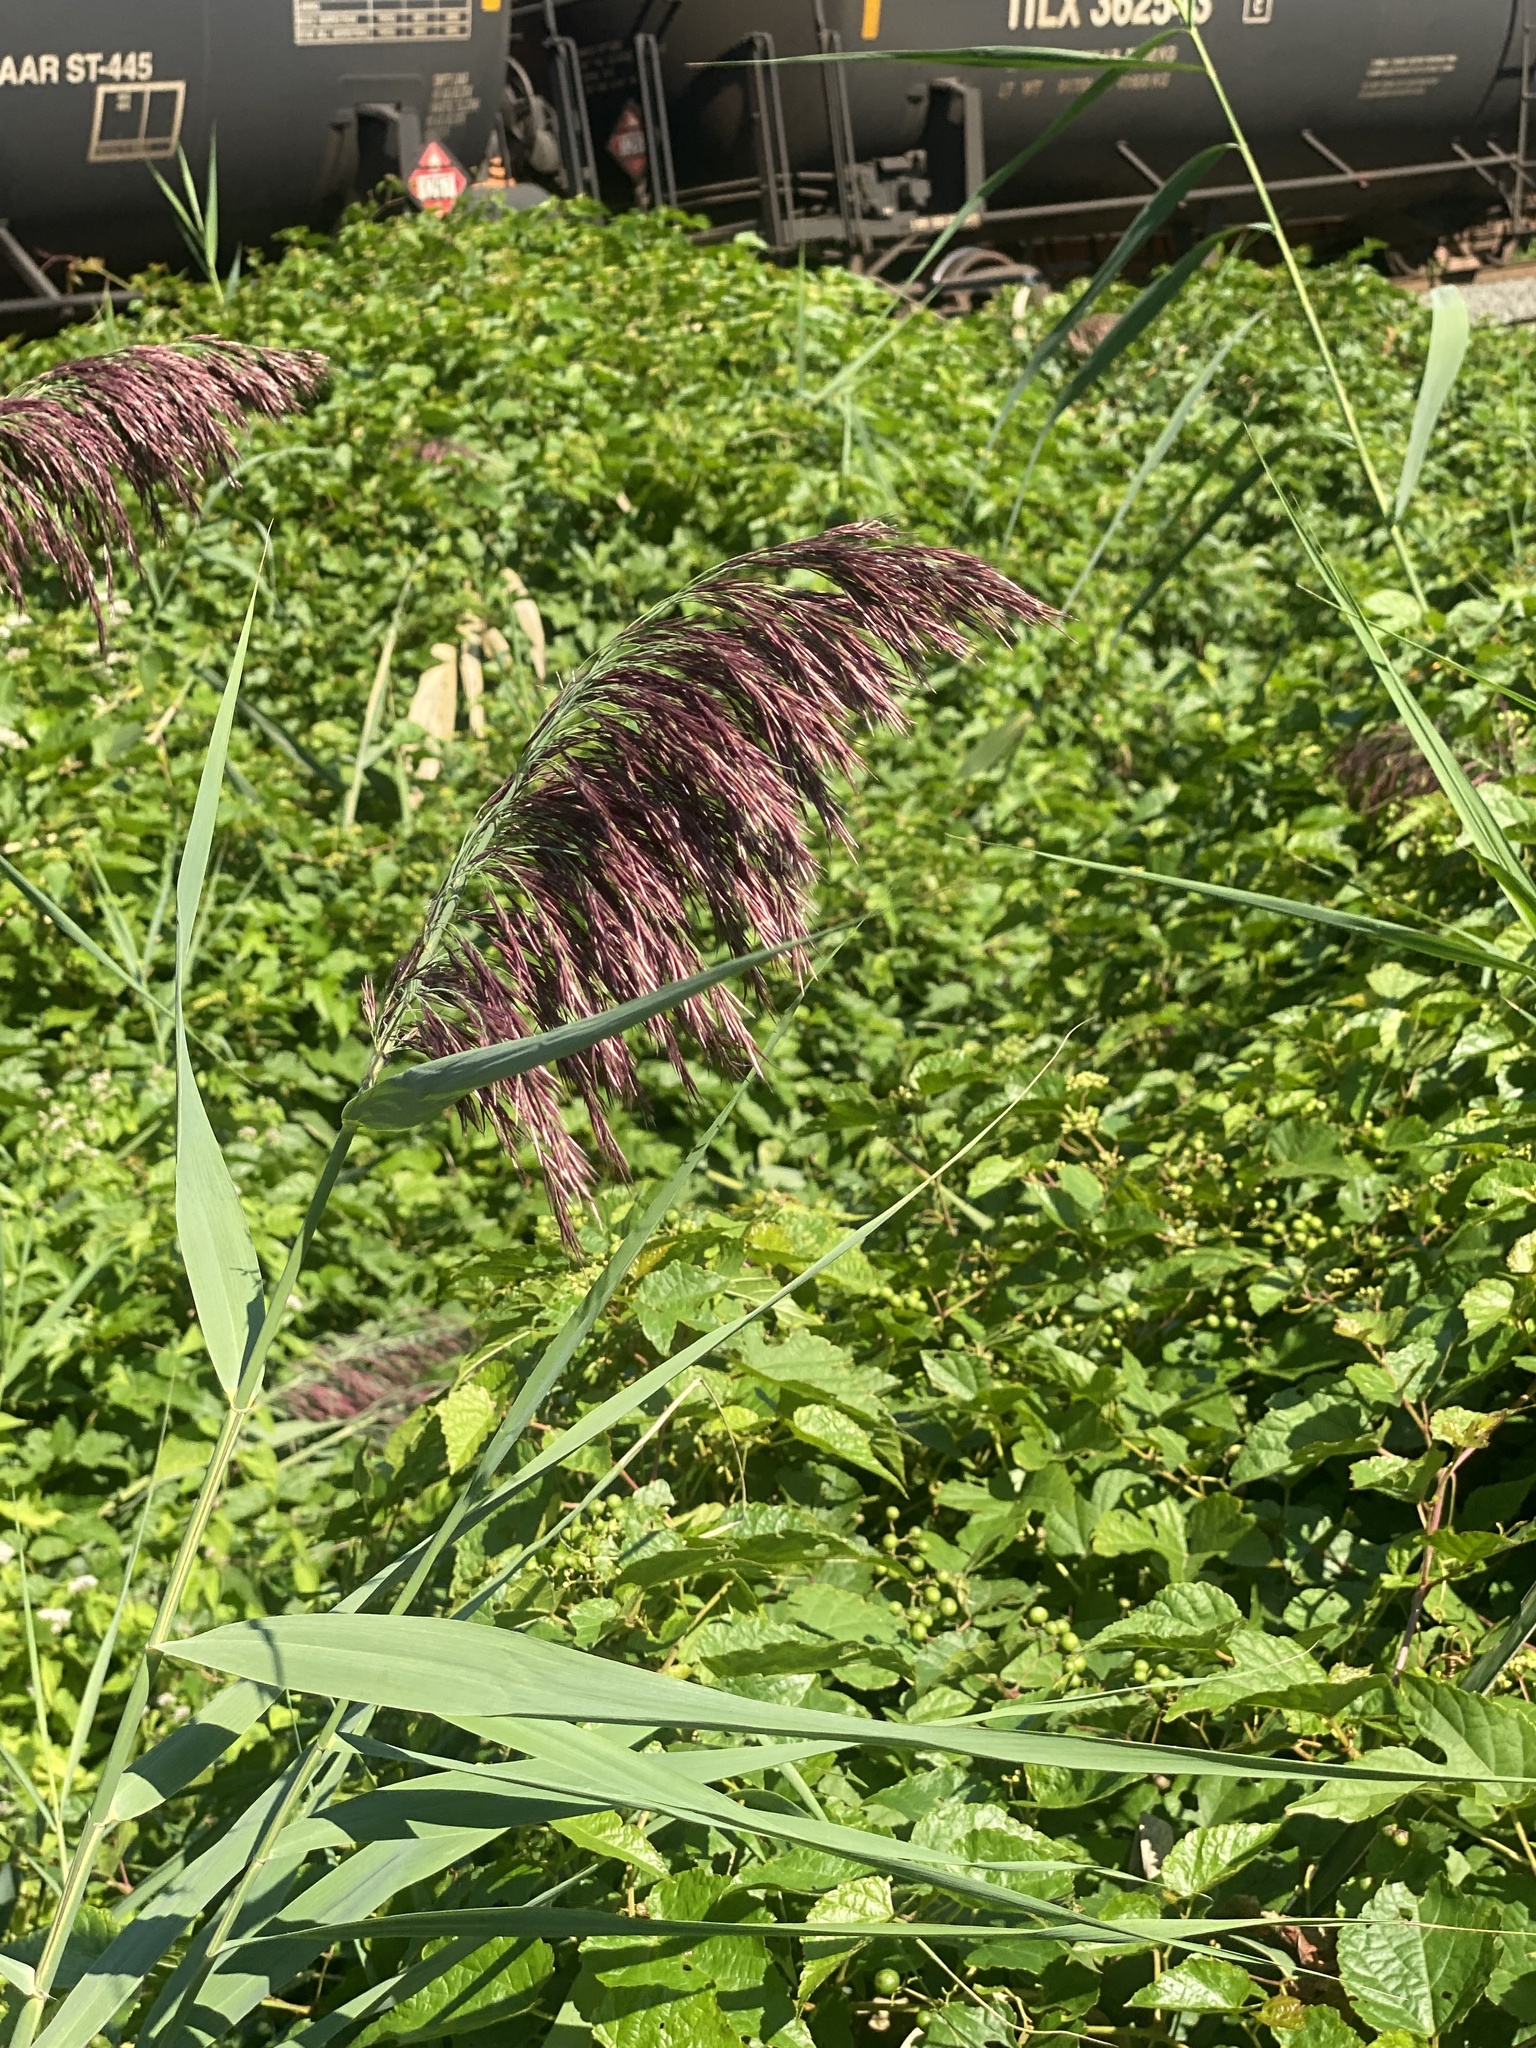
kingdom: Plantae
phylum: Tracheophyta
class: Liliopsida
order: Poales
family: Poaceae
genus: Phragmites
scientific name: Phragmites australis
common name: Common reed
